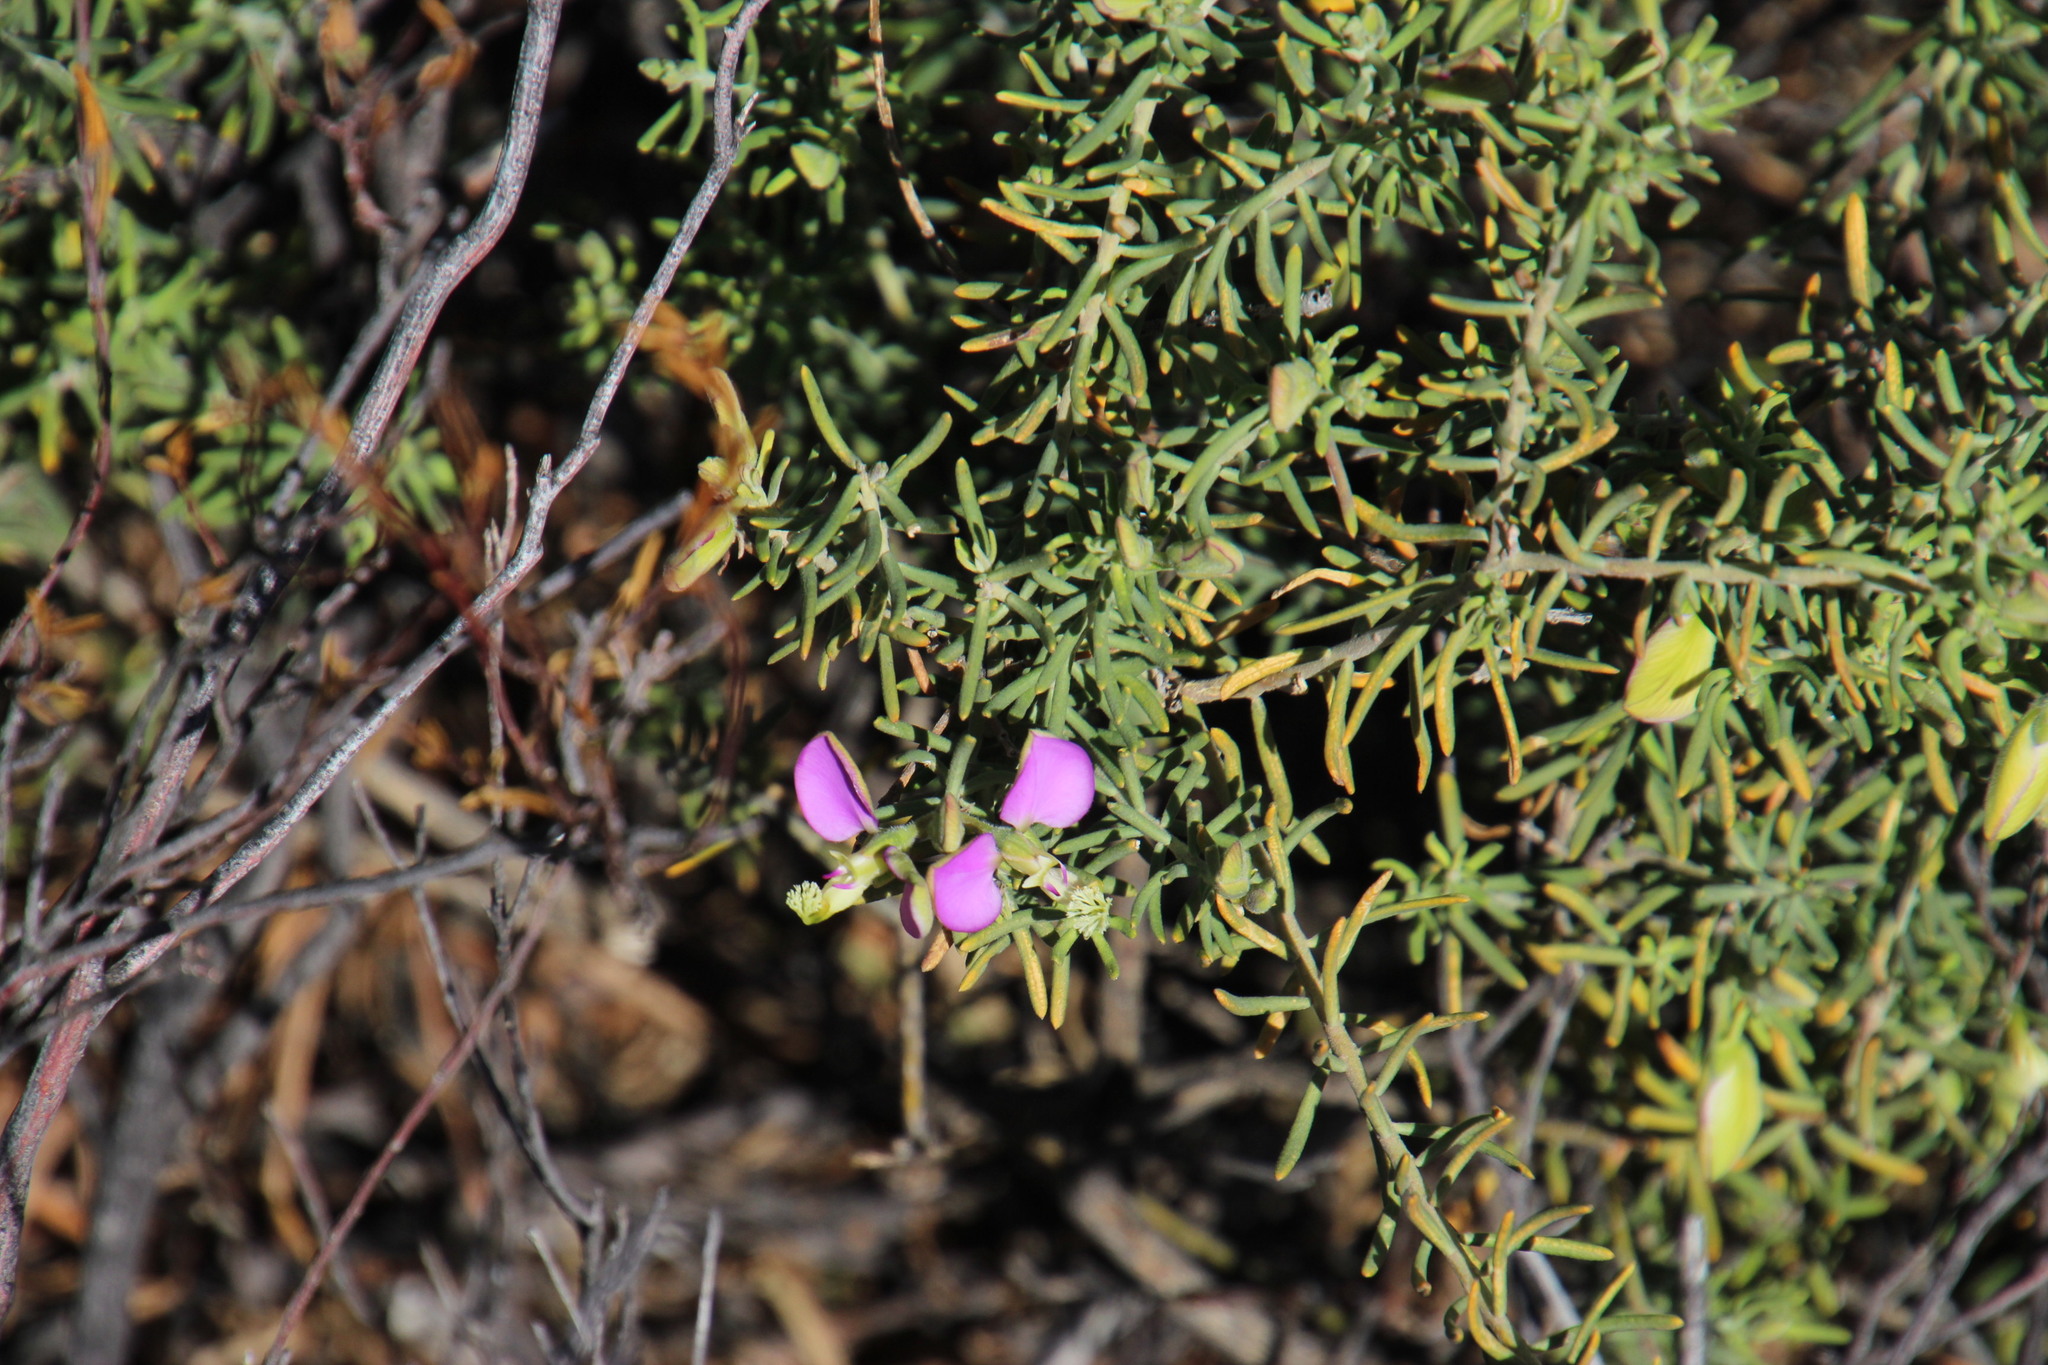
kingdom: Plantae
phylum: Tracheophyta
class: Magnoliopsida
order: Fabales
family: Polygalaceae
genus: Polygala
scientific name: Polygala lasiosepala
